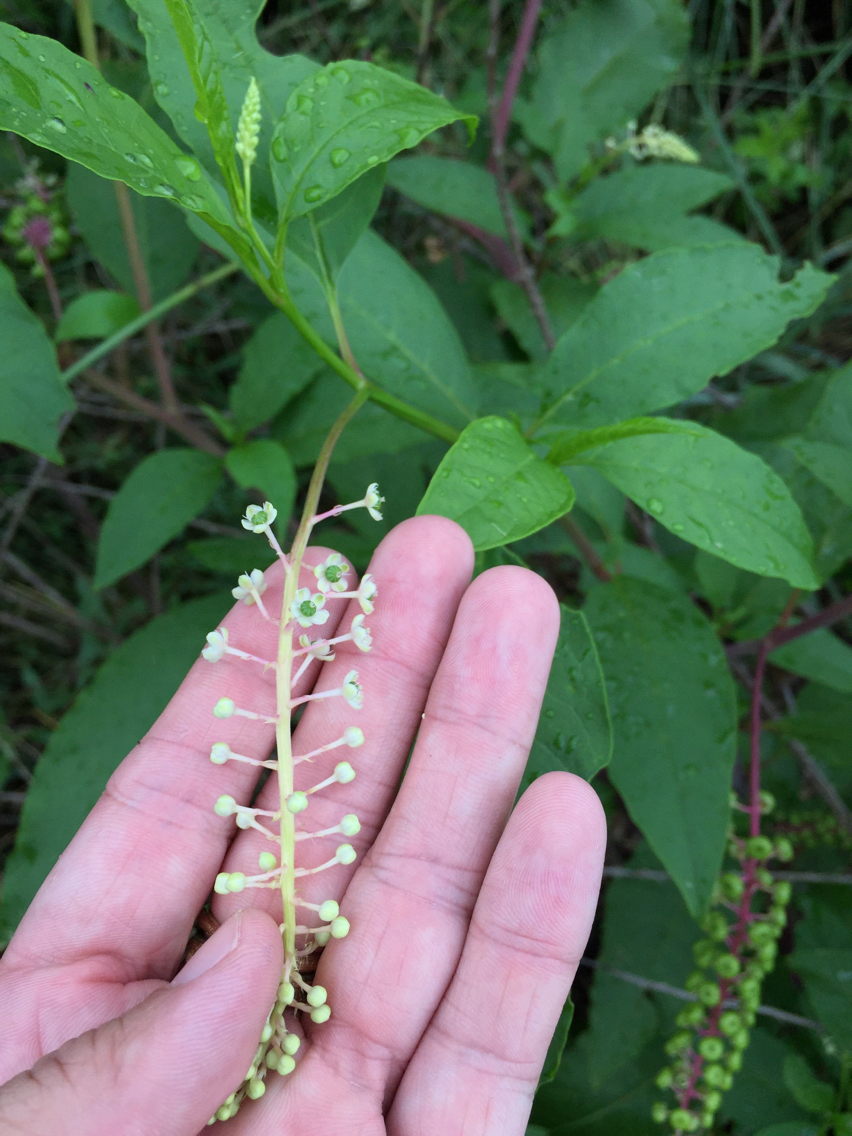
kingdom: Plantae
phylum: Tracheophyta
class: Magnoliopsida
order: Caryophyllales
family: Phytolaccaceae
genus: Phytolacca
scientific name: Phytolacca americana
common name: American pokeweed
